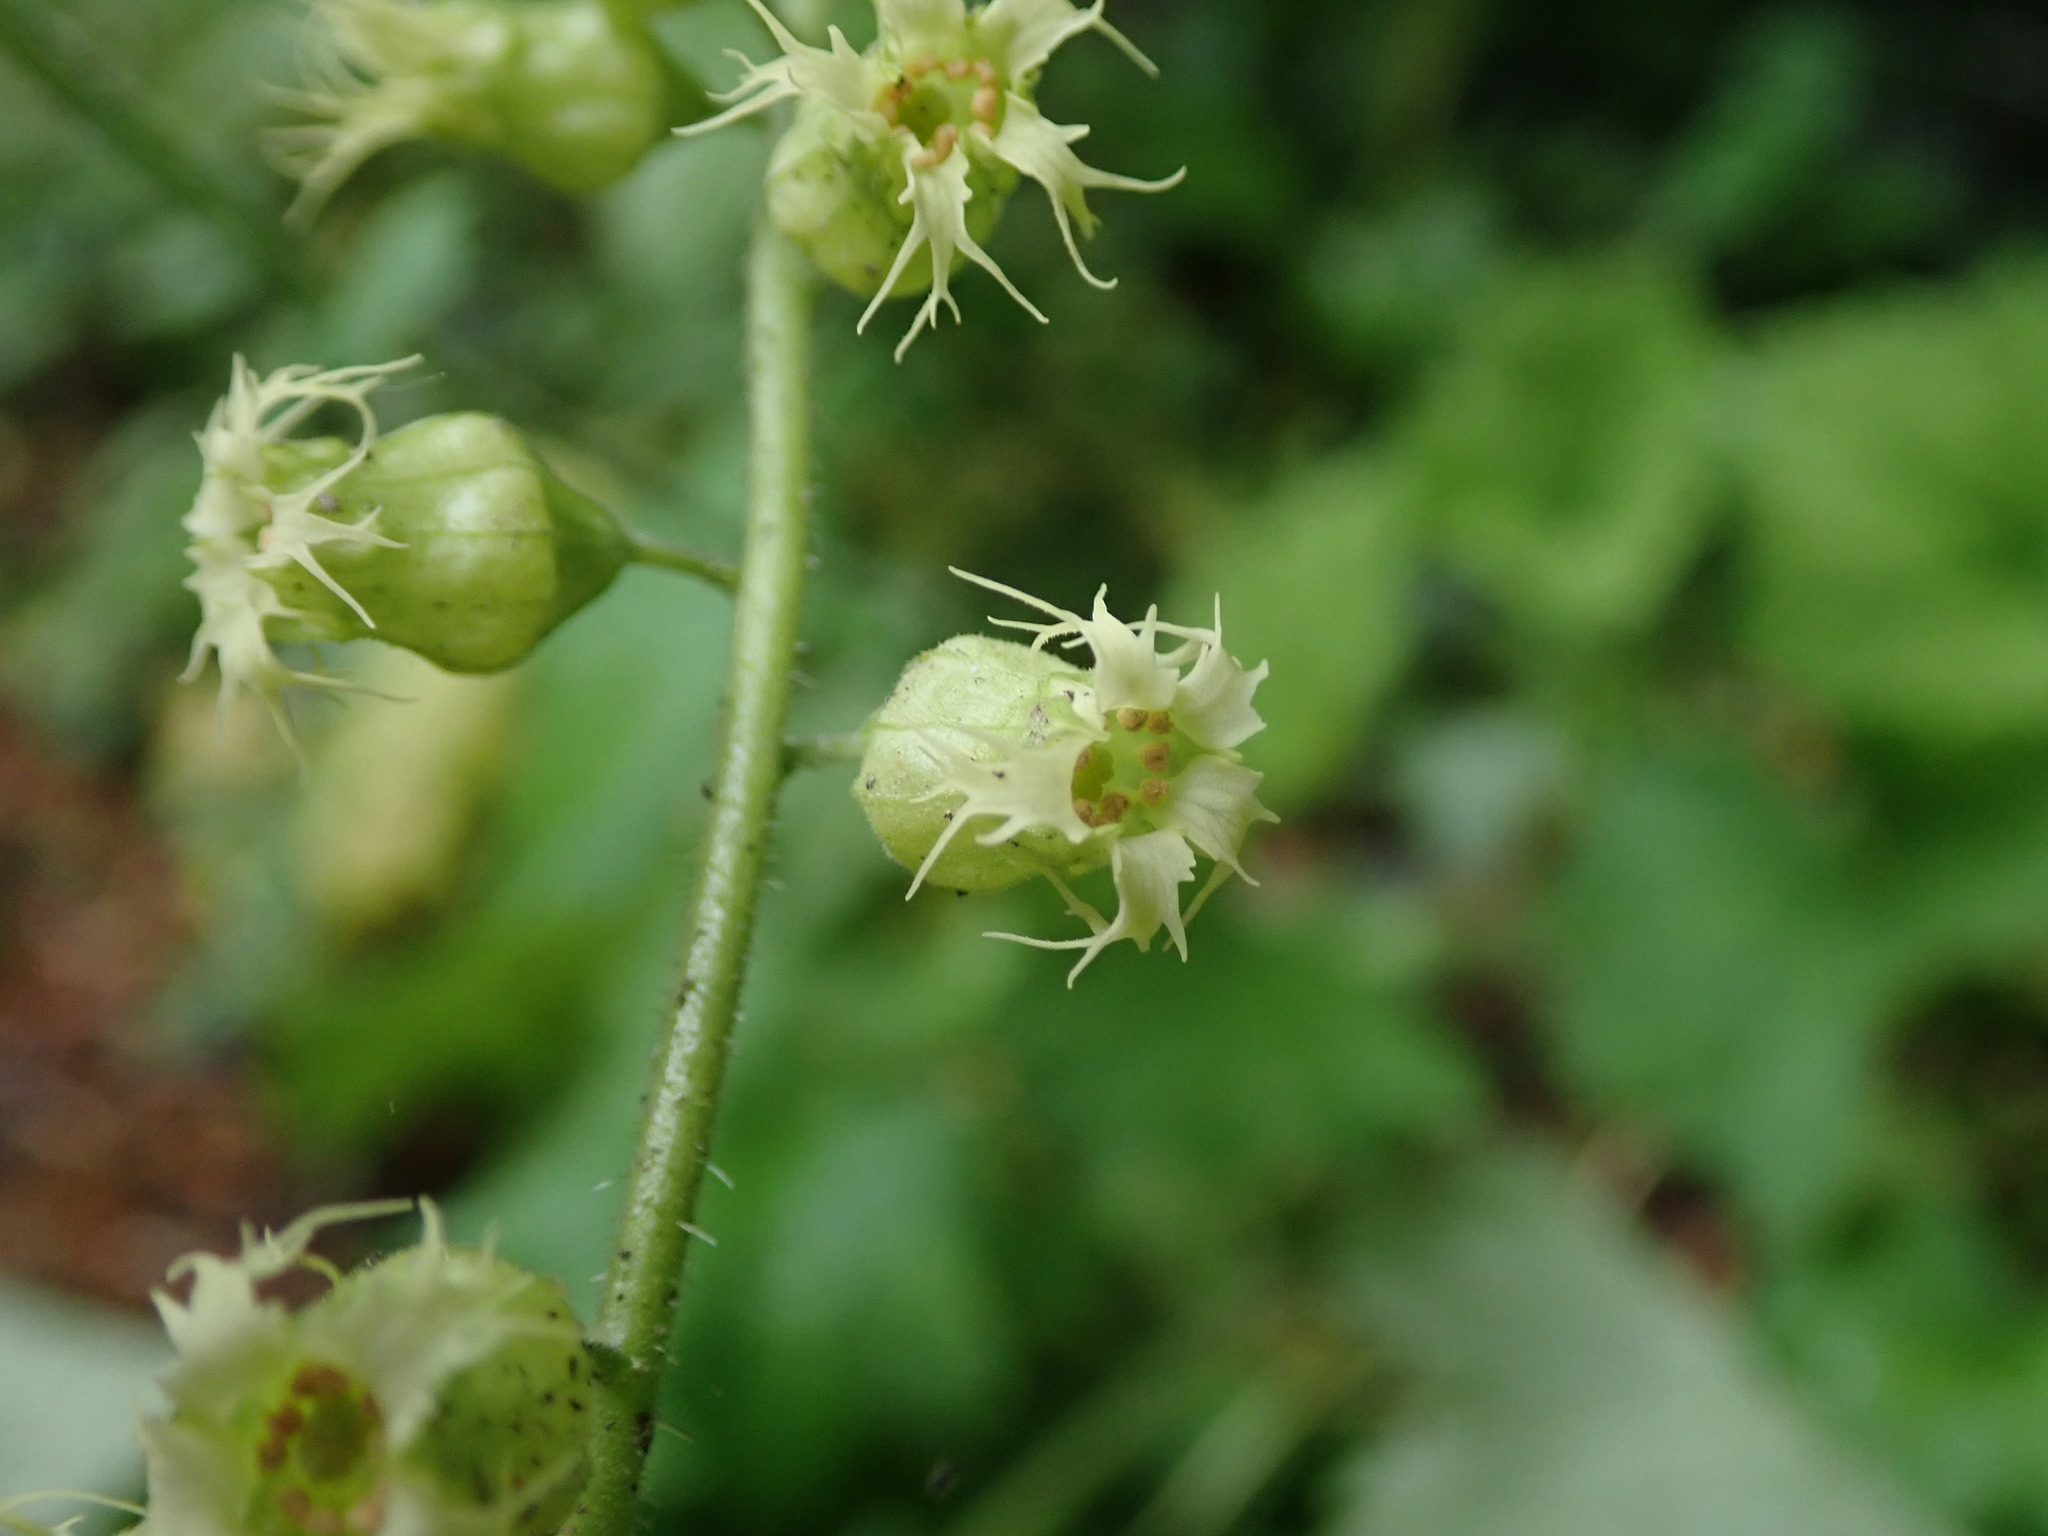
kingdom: Plantae
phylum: Tracheophyta
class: Magnoliopsida
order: Saxifragales
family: Saxifragaceae
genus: Tellima
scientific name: Tellima grandiflora
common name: Fringecups
